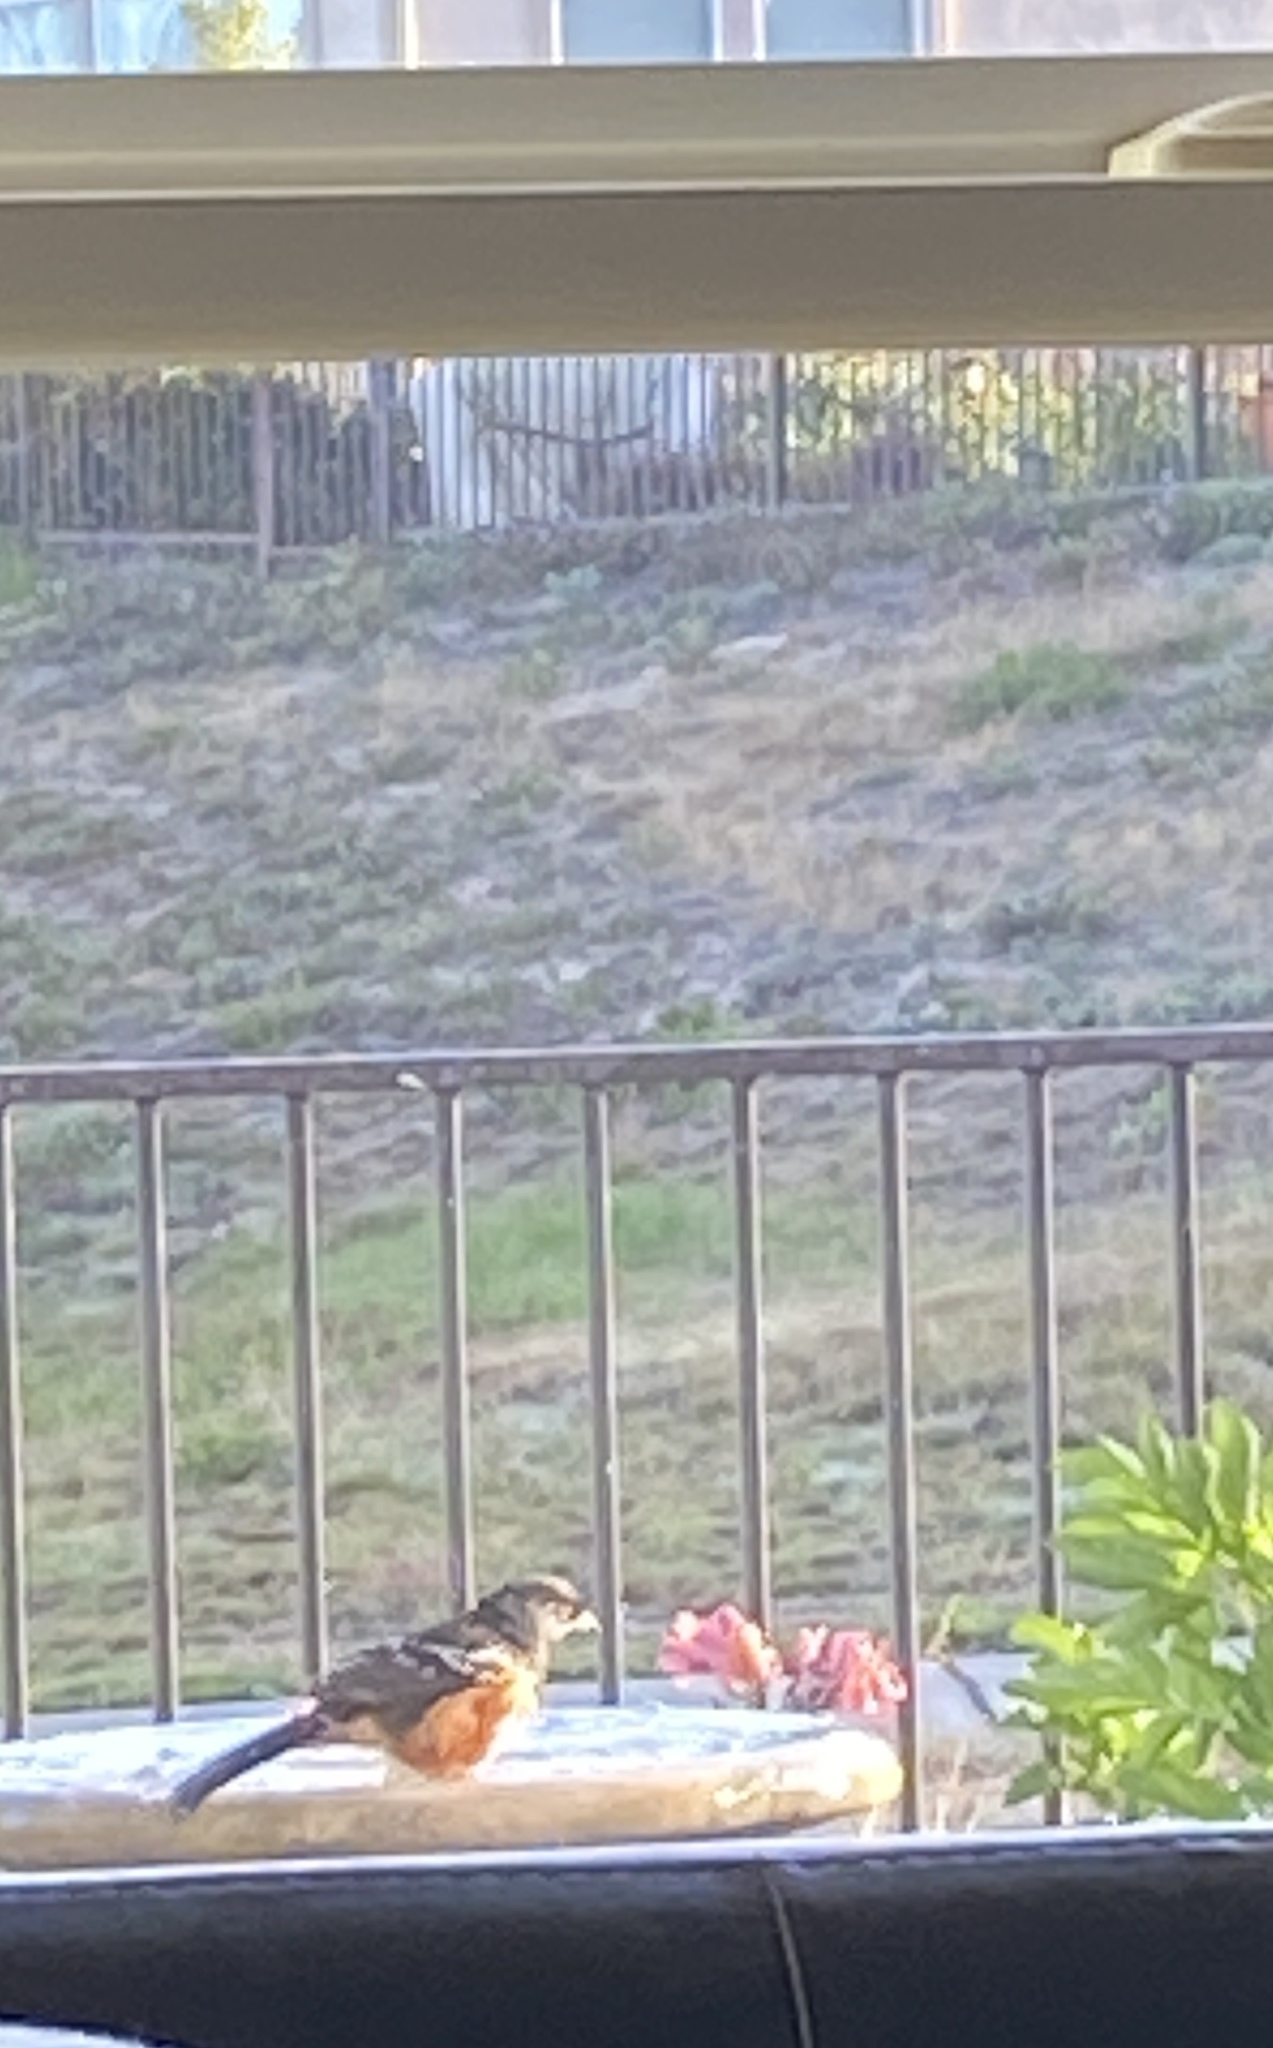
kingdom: Animalia
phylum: Chordata
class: Aves
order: Passeriformes
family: Passerellidae
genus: Pipilo
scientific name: Pipilo maculatus
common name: Spotted towhee
